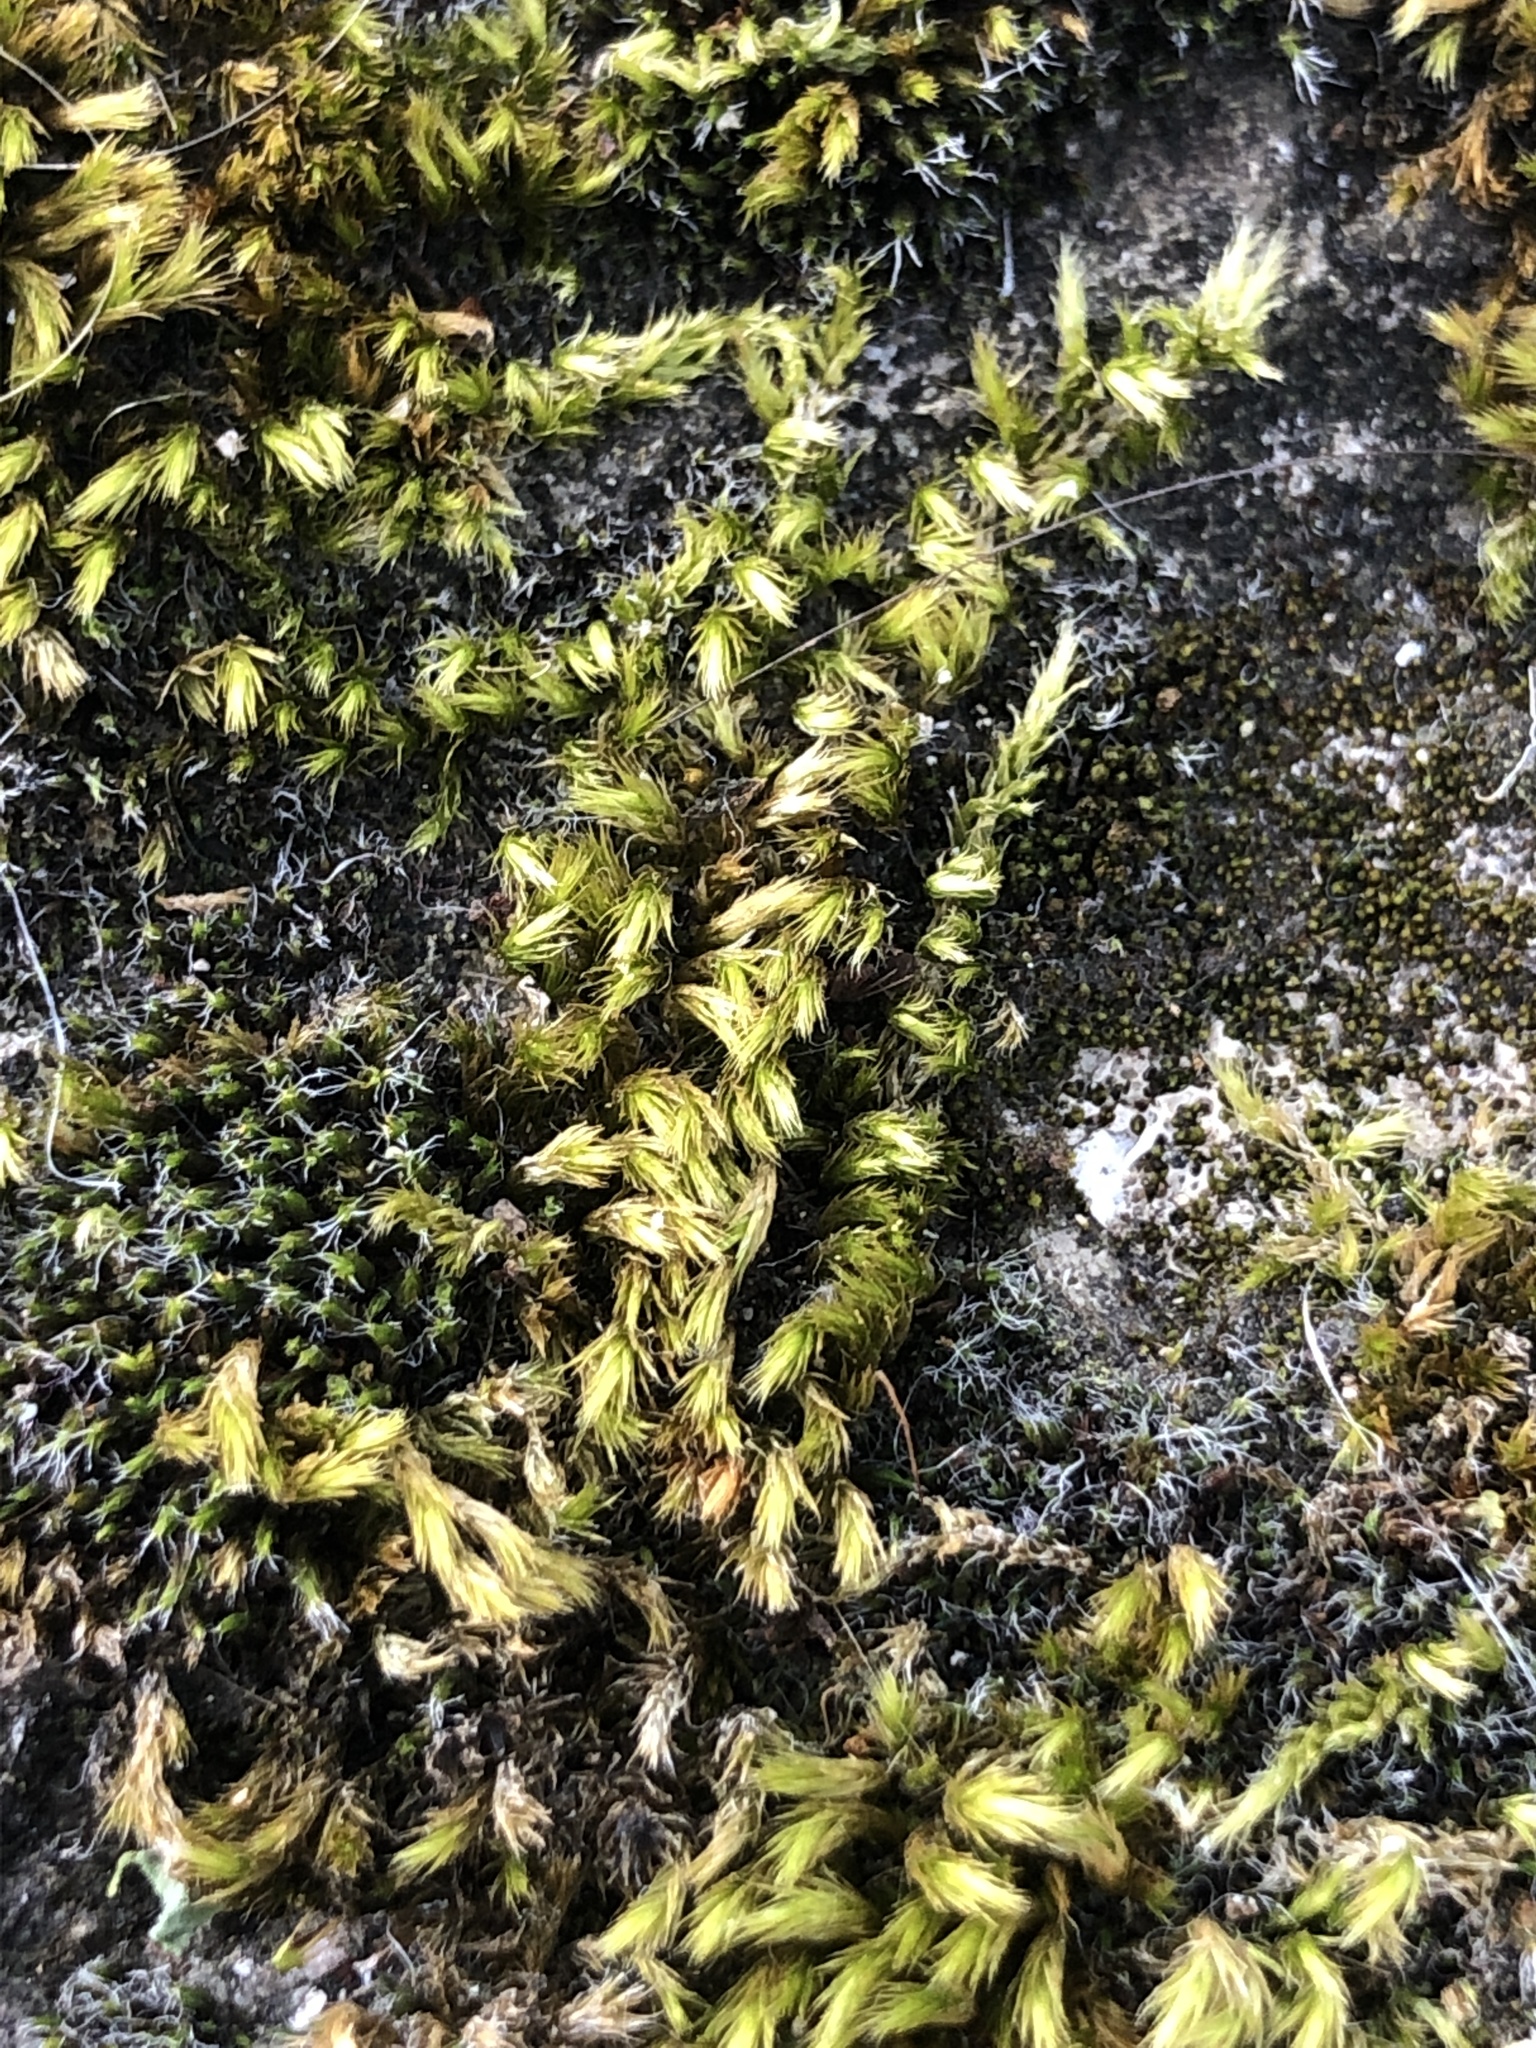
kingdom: Plantae
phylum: Bryophyta
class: Bryopsida
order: Hypnales
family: Brachytheciaceae
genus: Homalothecium
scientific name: Homalothecium sericeum
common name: Silky wall feather-moss
